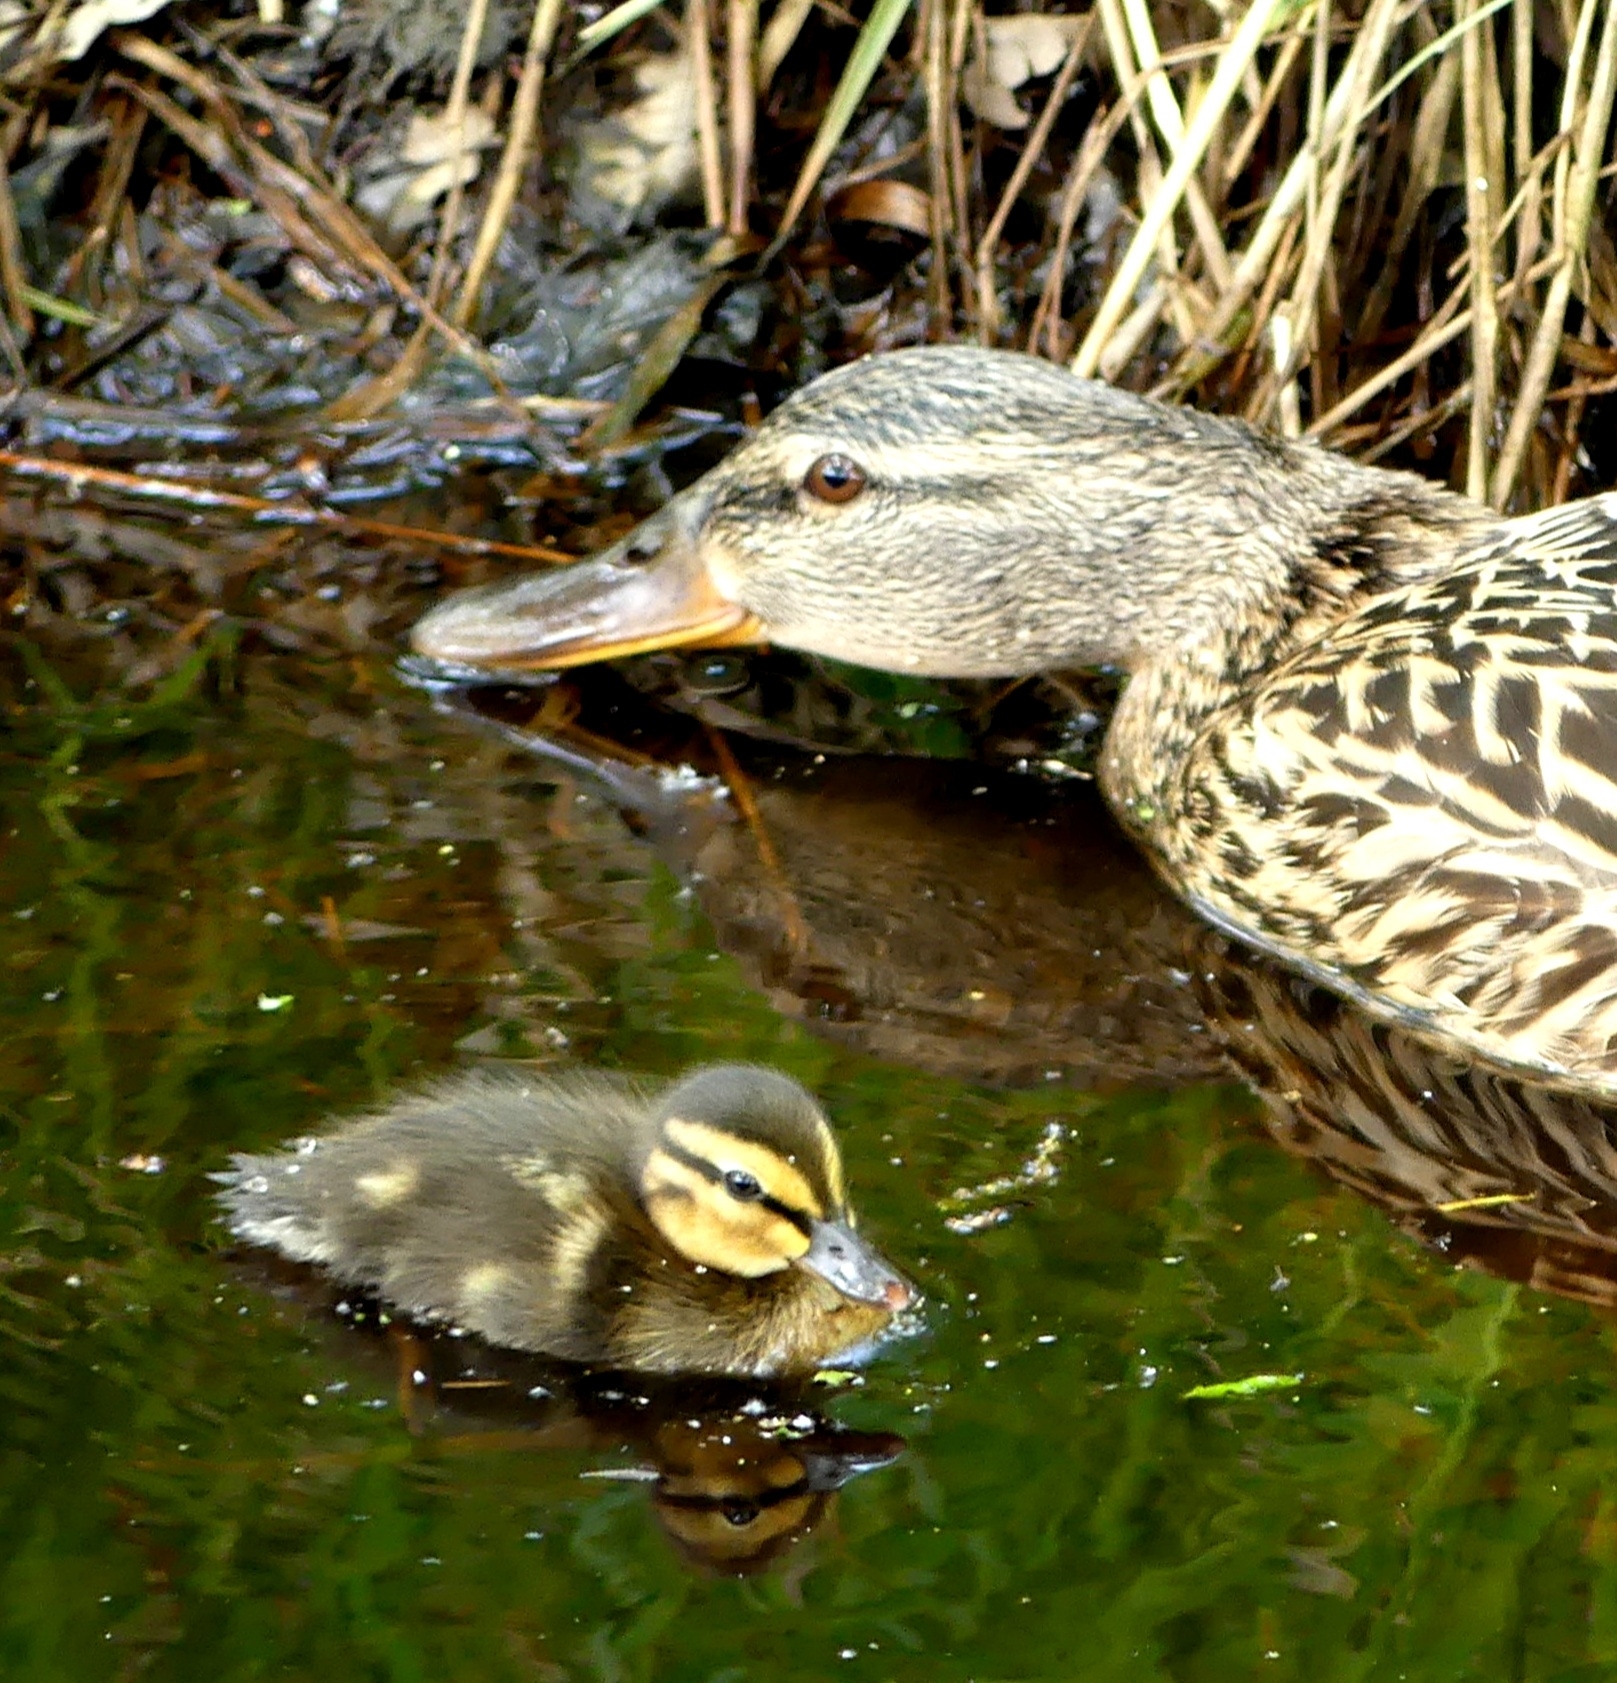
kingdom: Animalia
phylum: Chordata
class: Aves
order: Anseriformes
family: Anatidae
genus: Anas
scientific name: Anas platyrhynchos
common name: Mallard
